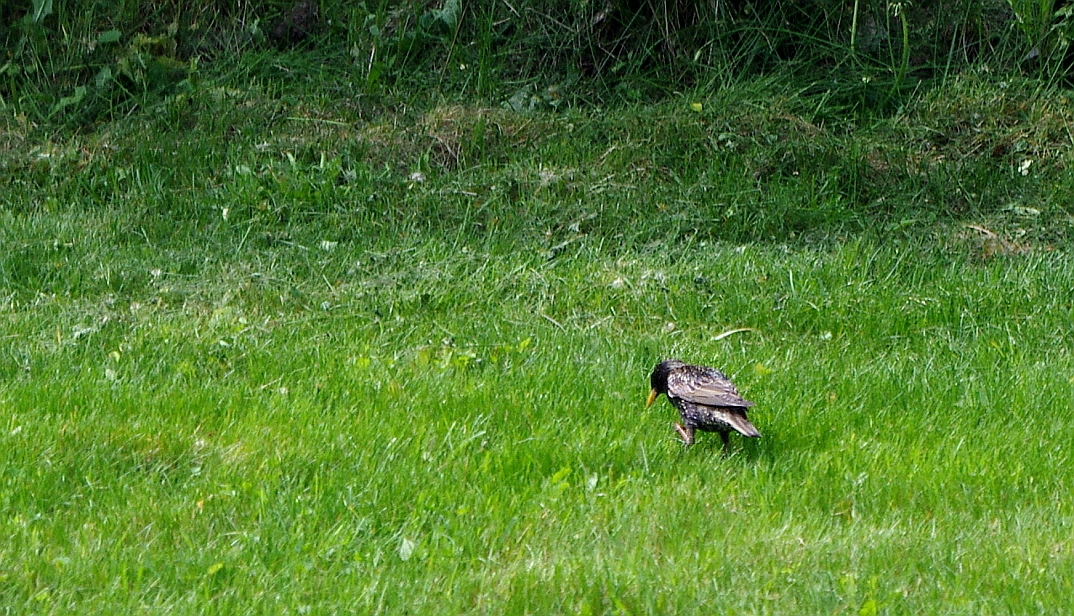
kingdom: Animalia
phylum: Chordata
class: Aves
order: Passeriformes
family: Sturnidae
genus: Sturnus
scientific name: Sturnus vulgaris
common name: Common starling
